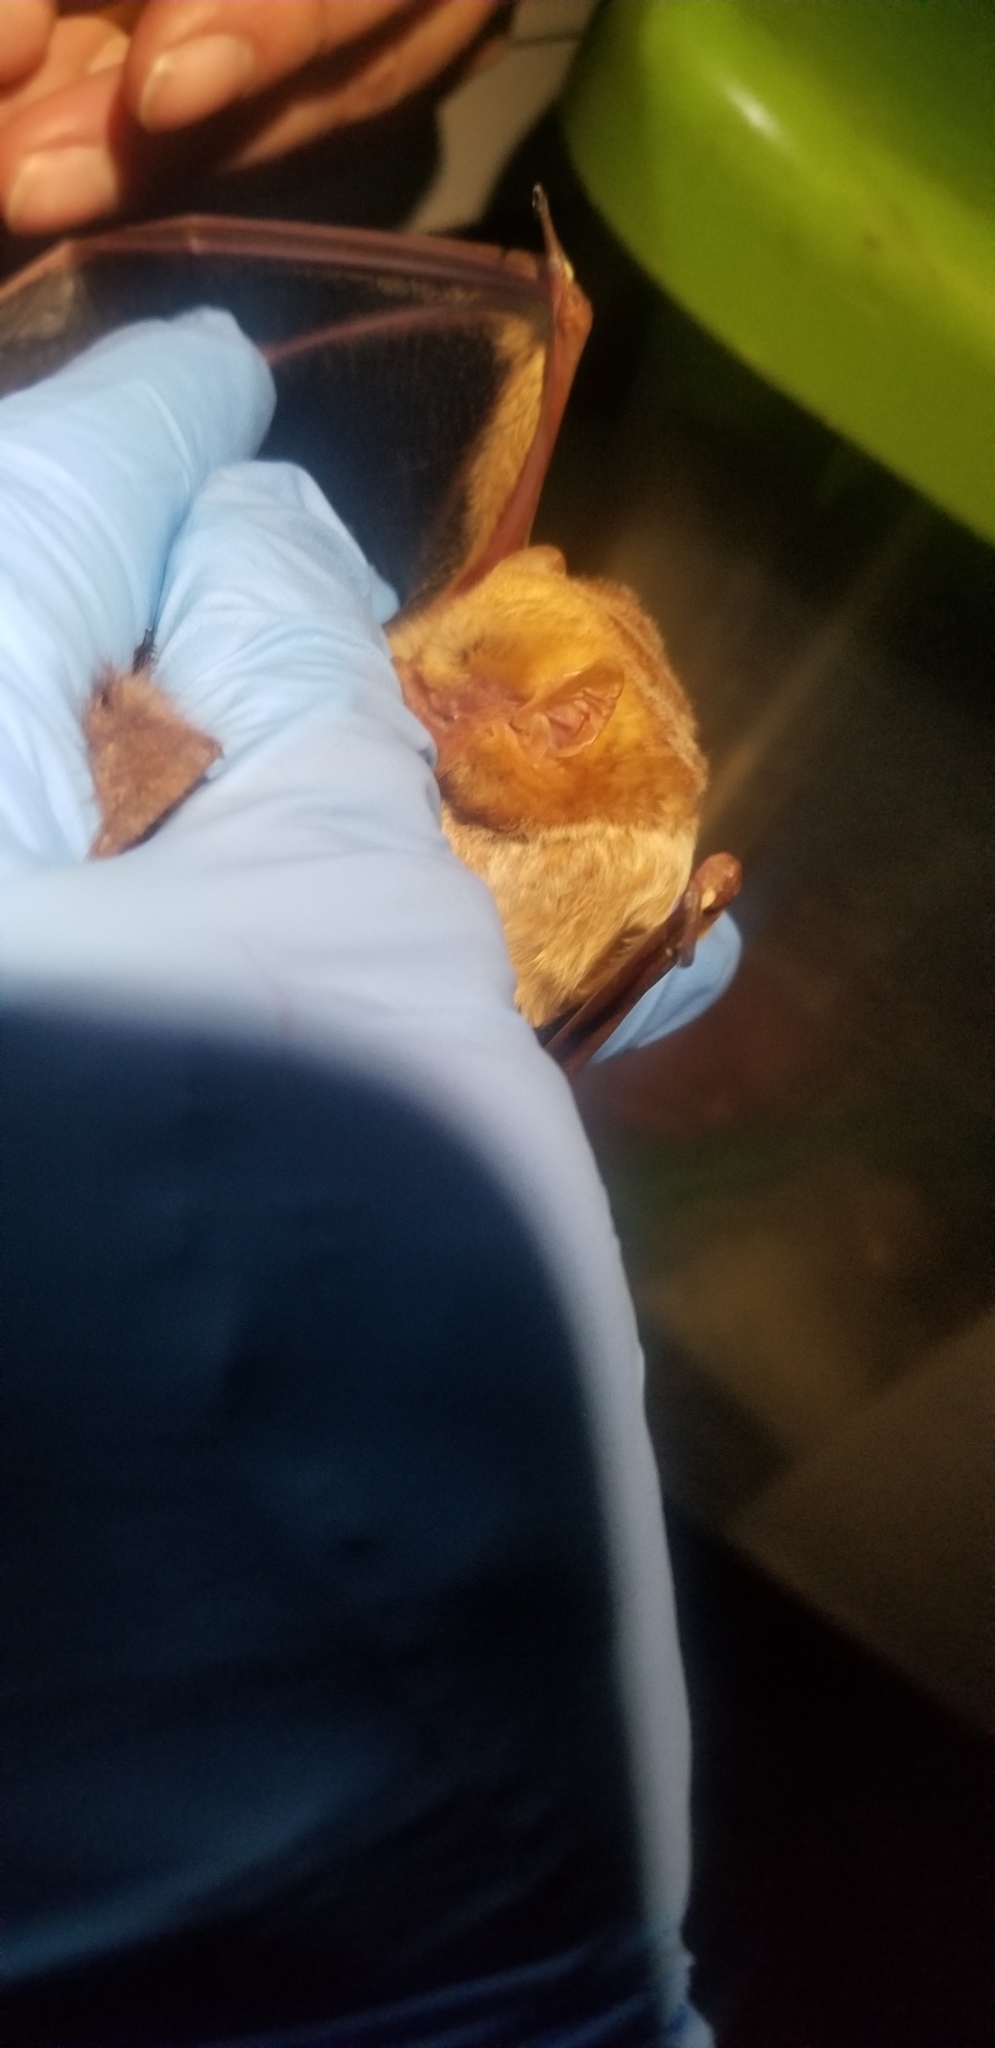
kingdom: Animalia
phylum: Chordata
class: Mammalia
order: Chiroptera
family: Vespertilionidae
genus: Lasiurus
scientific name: Lasiurus borealis
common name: Eastern red bat
